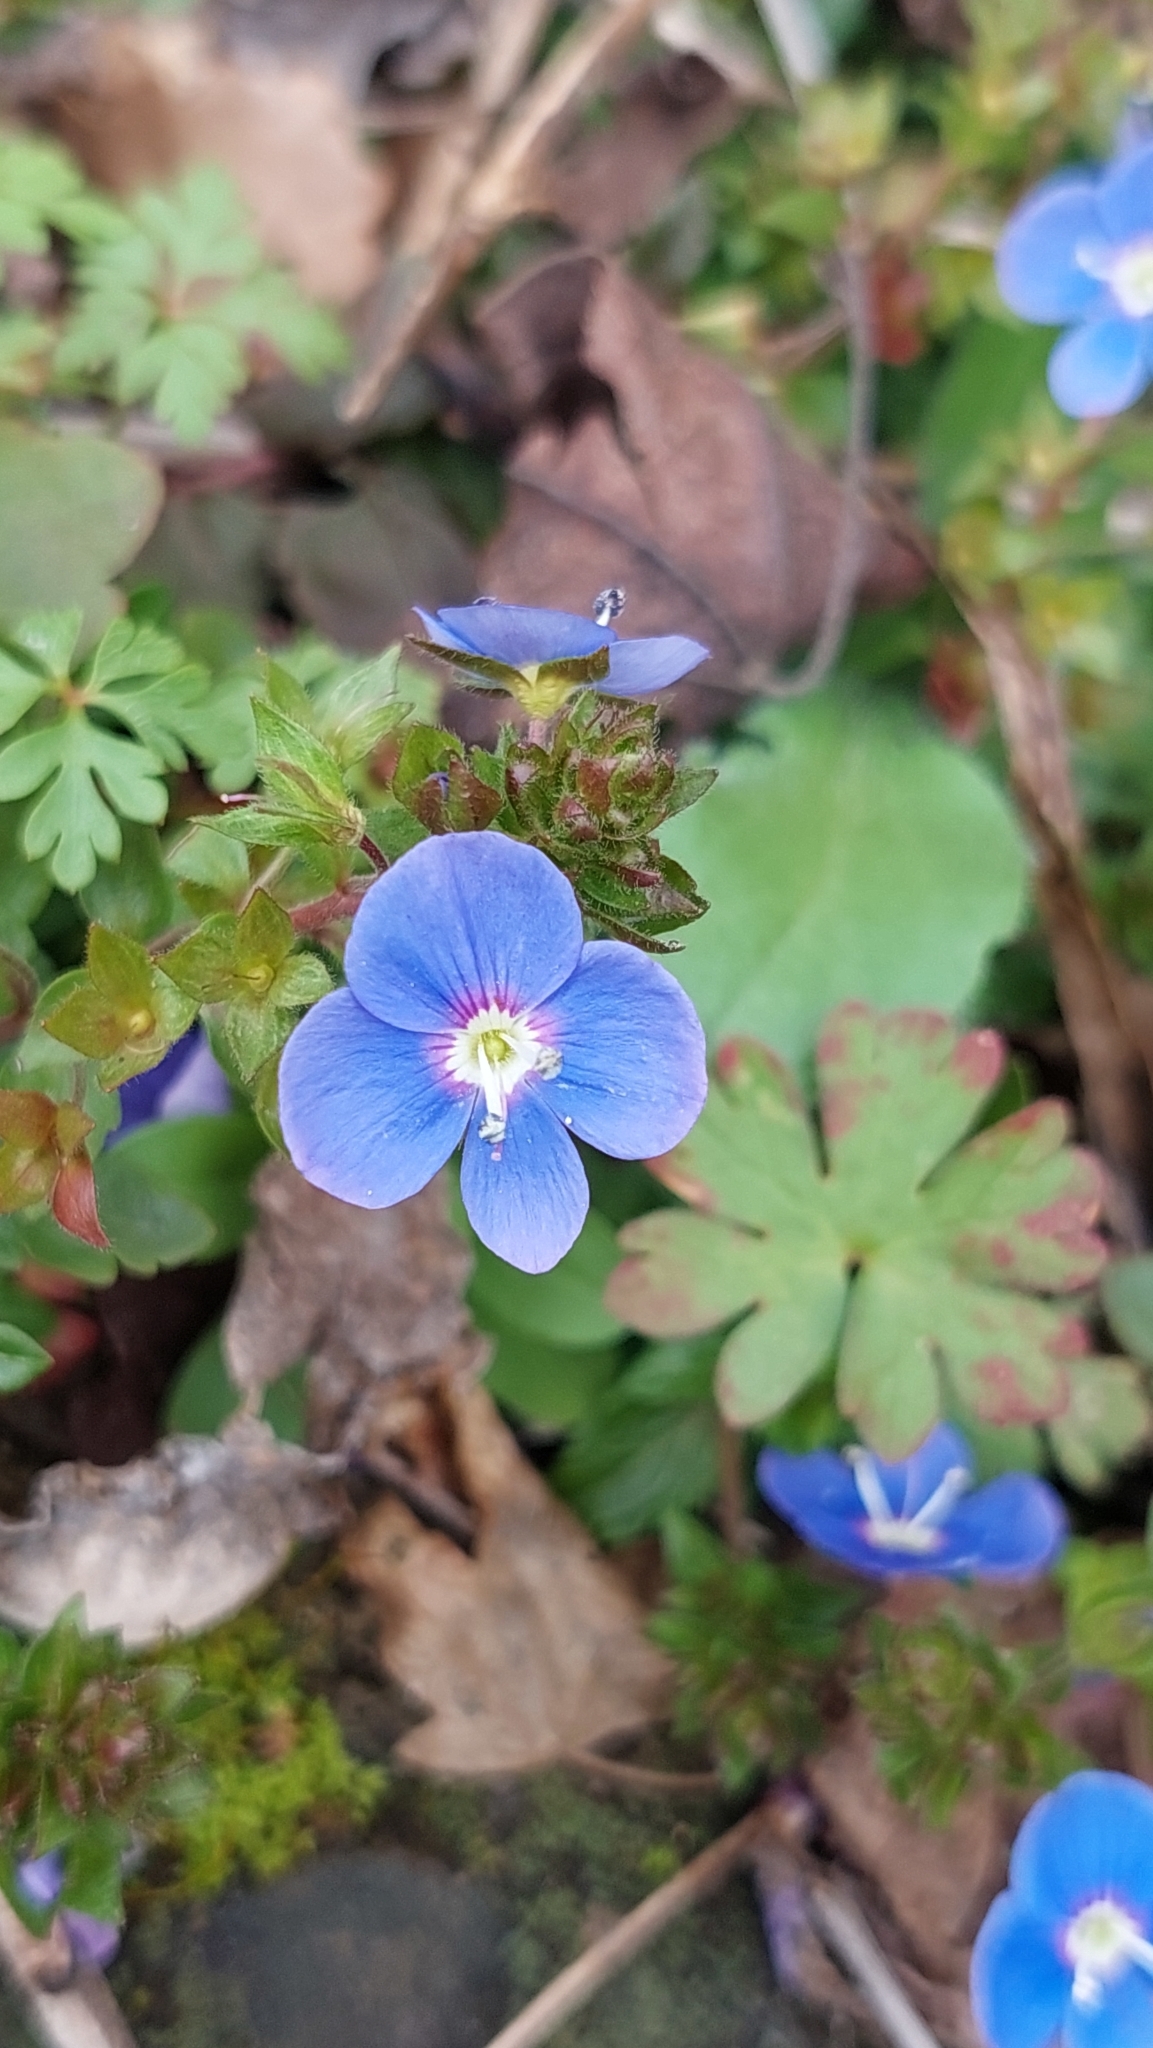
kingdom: Plantae
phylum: Tracheophyta
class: Magnoliopsida
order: Lamiales
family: Plantaginaceae
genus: Veronica
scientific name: Veronica
